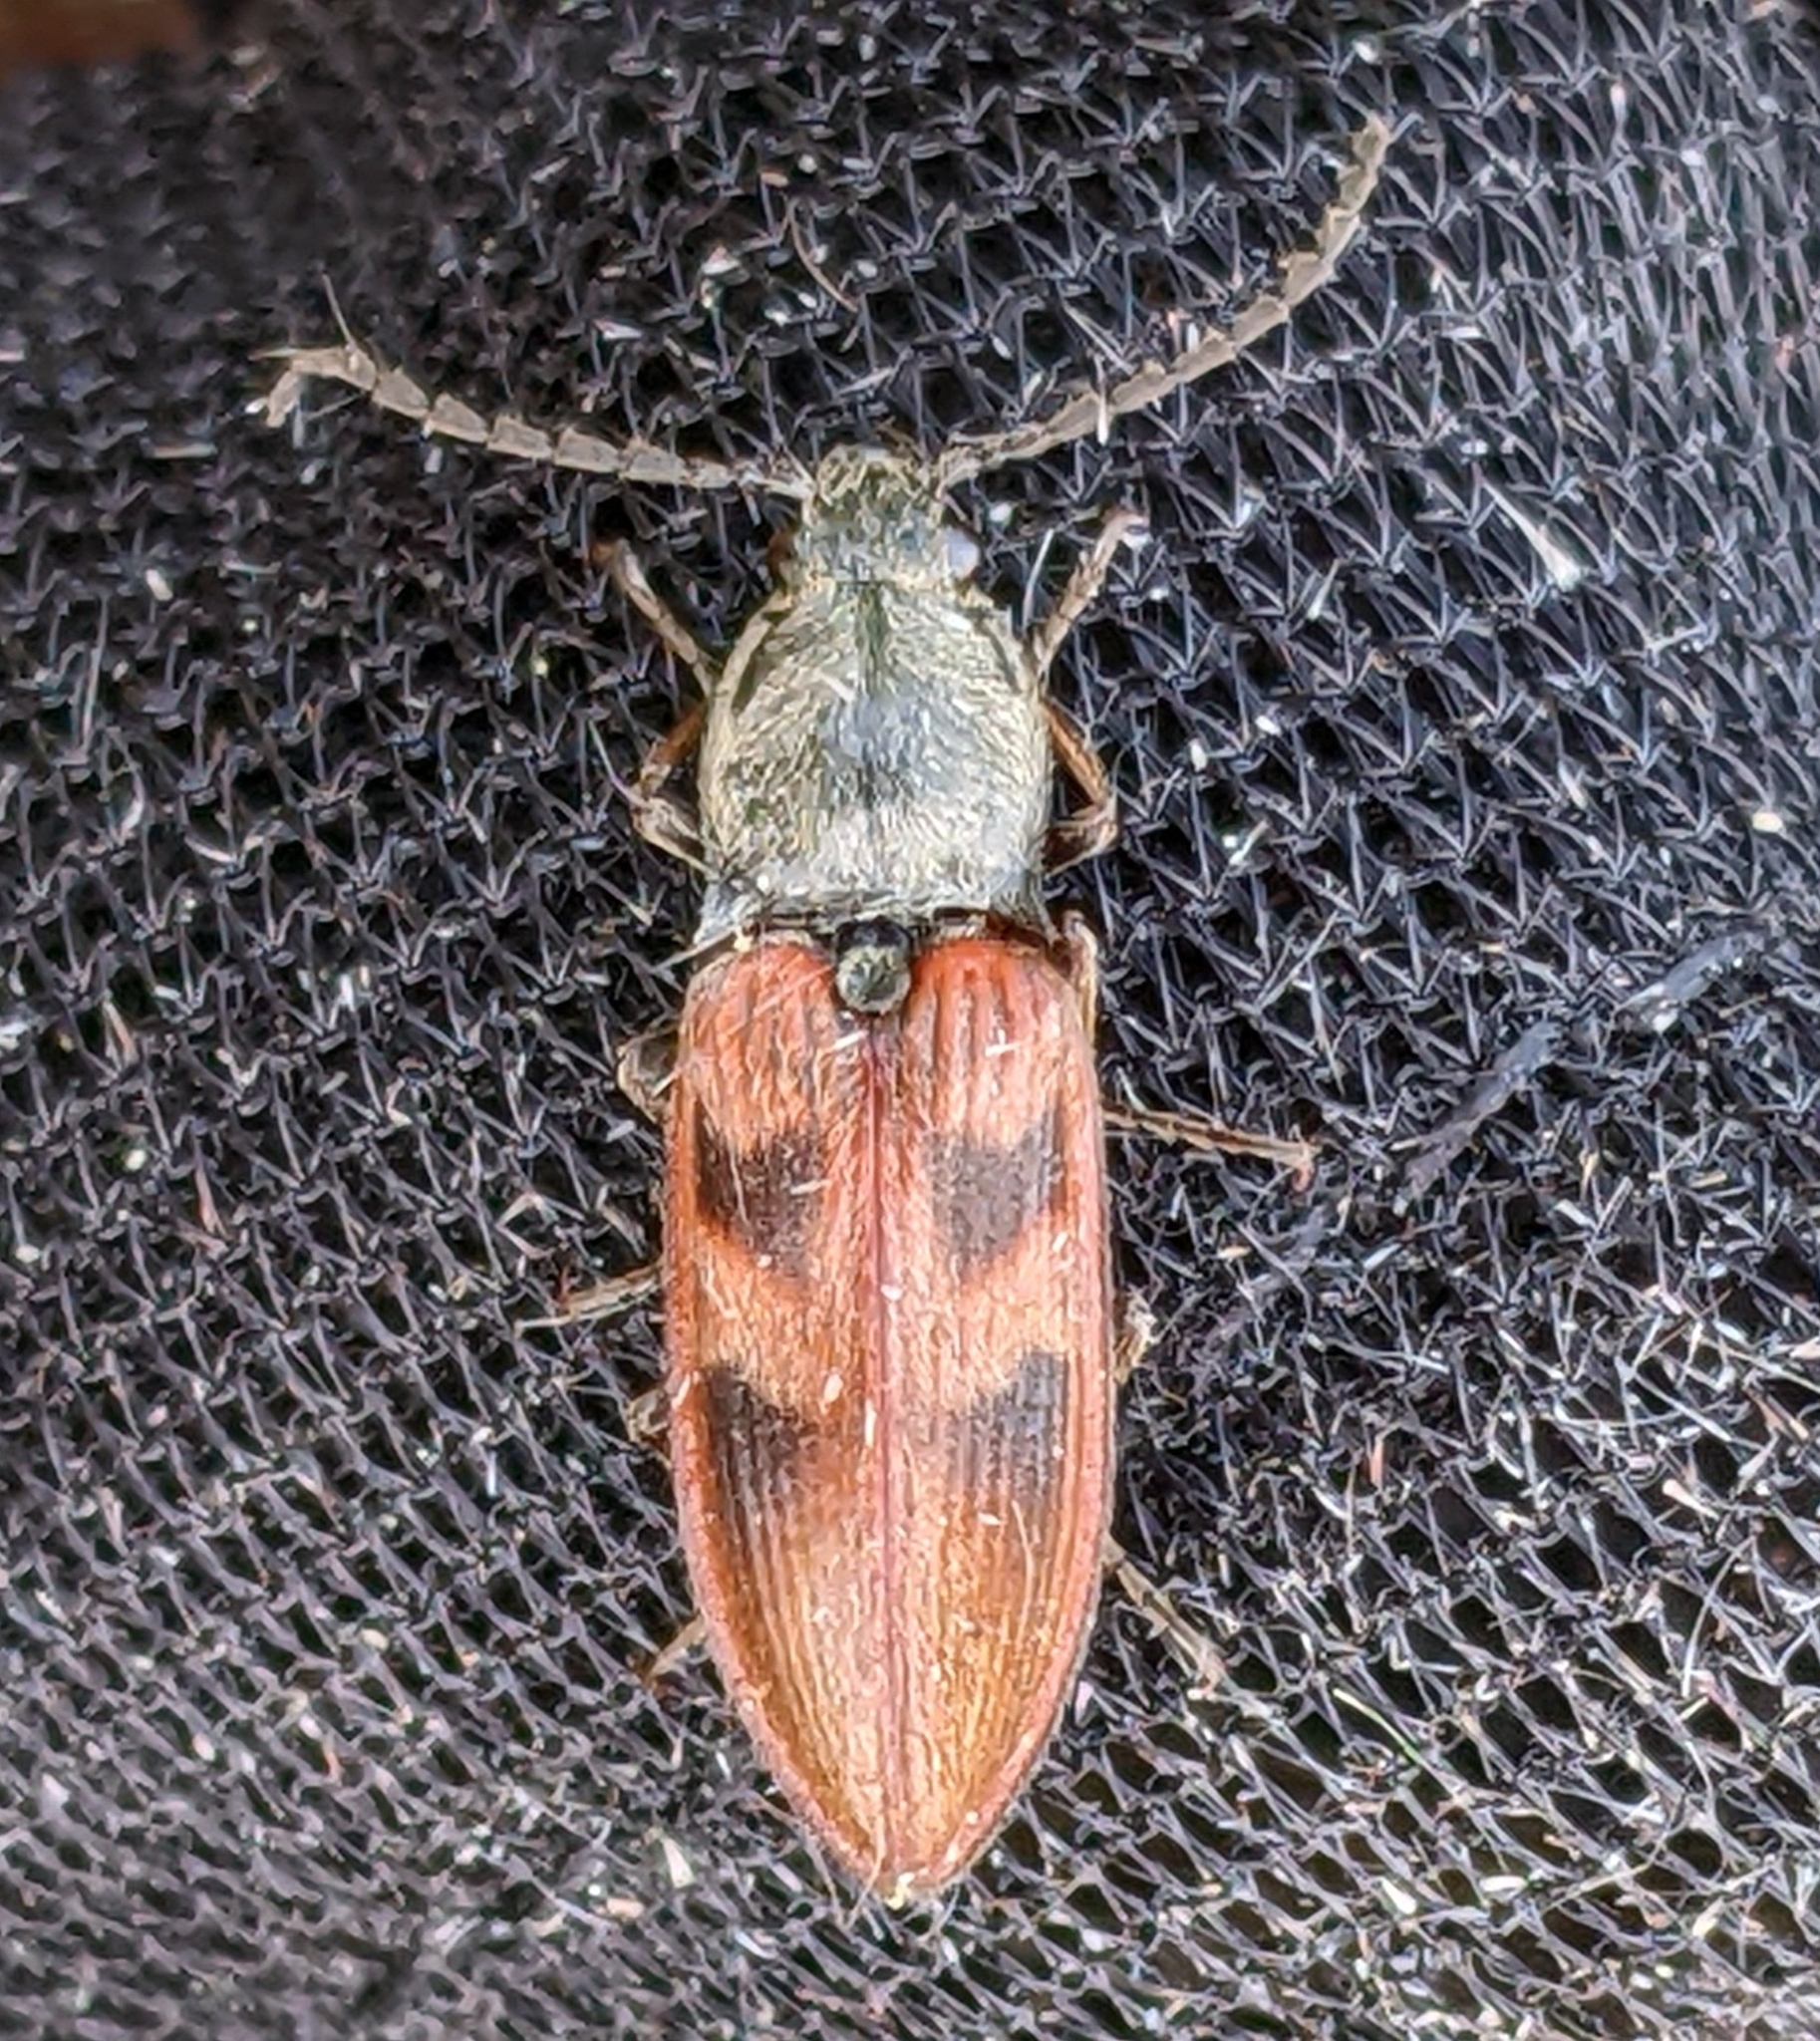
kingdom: Animalia
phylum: Arthropoda
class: Insecta
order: Coleoptera
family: Elateridae
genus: Stropenron
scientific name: Stropenron nigricollis
